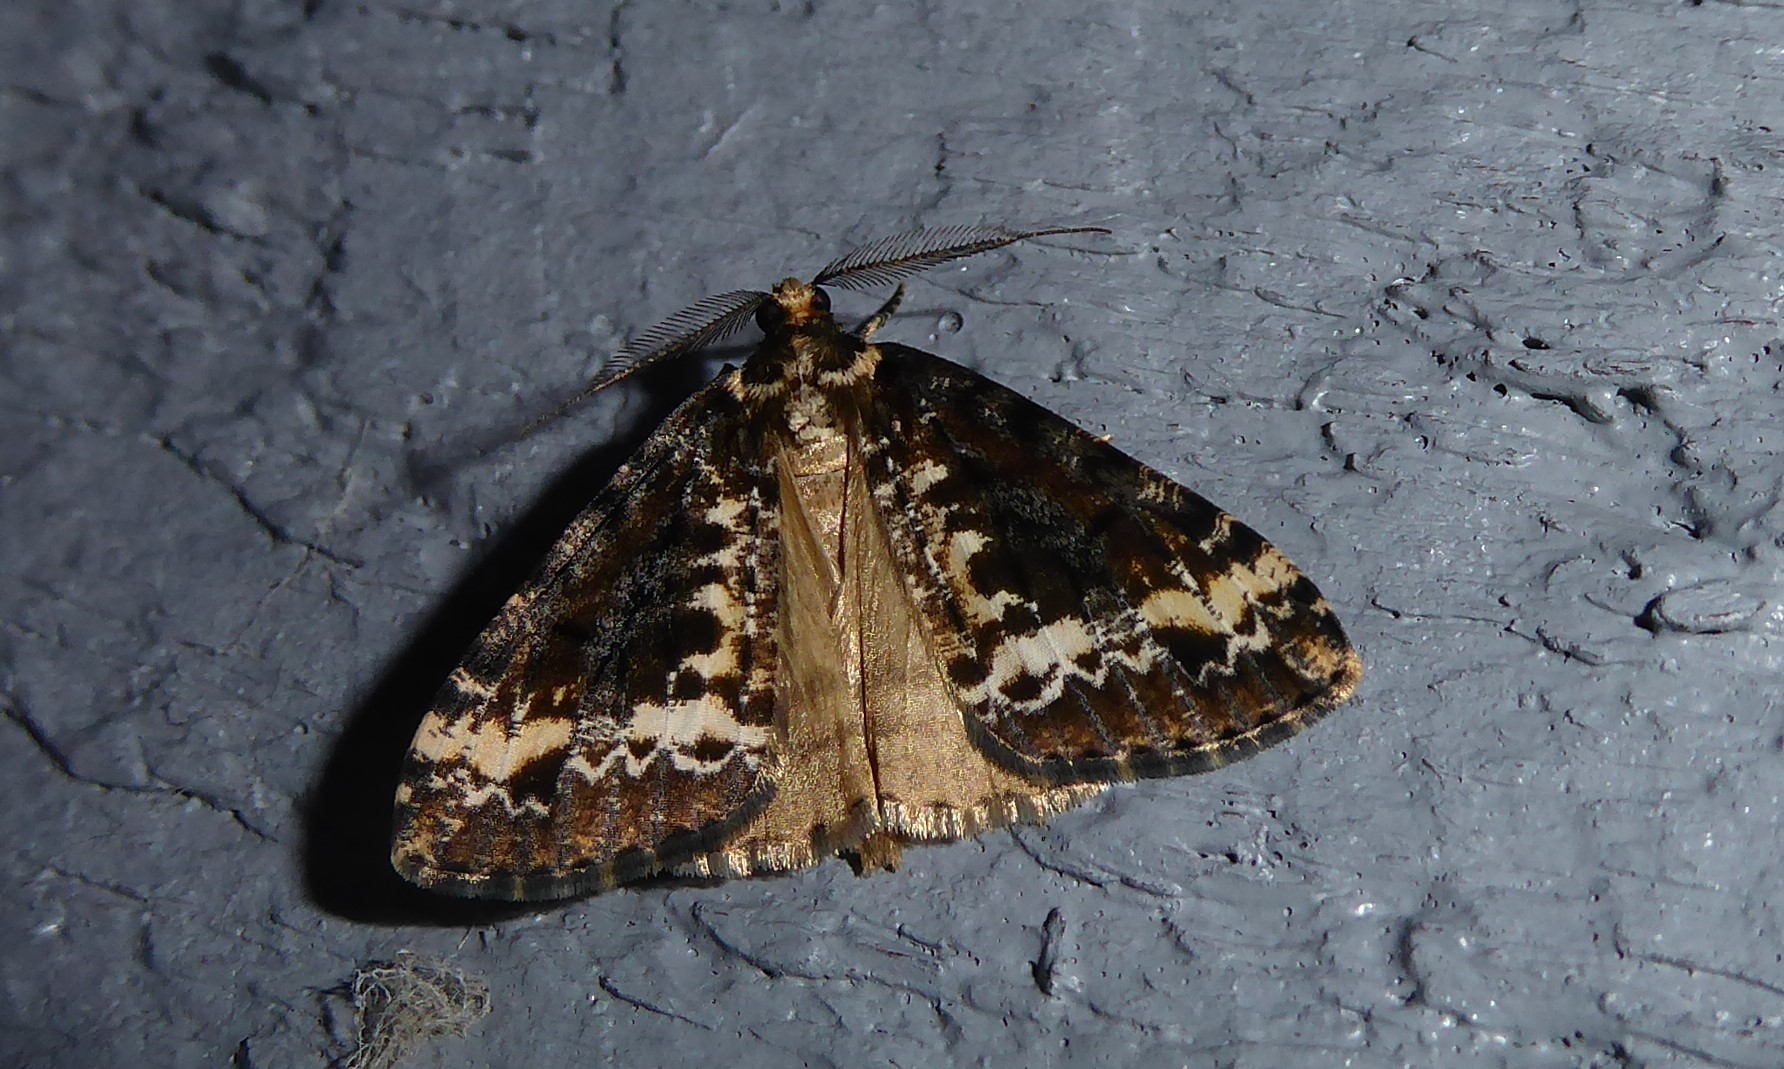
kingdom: Animalia
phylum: Arthropoda
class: Insecta
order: Lepidoptera
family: Geometridae
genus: Pseudocoremia
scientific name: Pseudocoremia leucelaea
